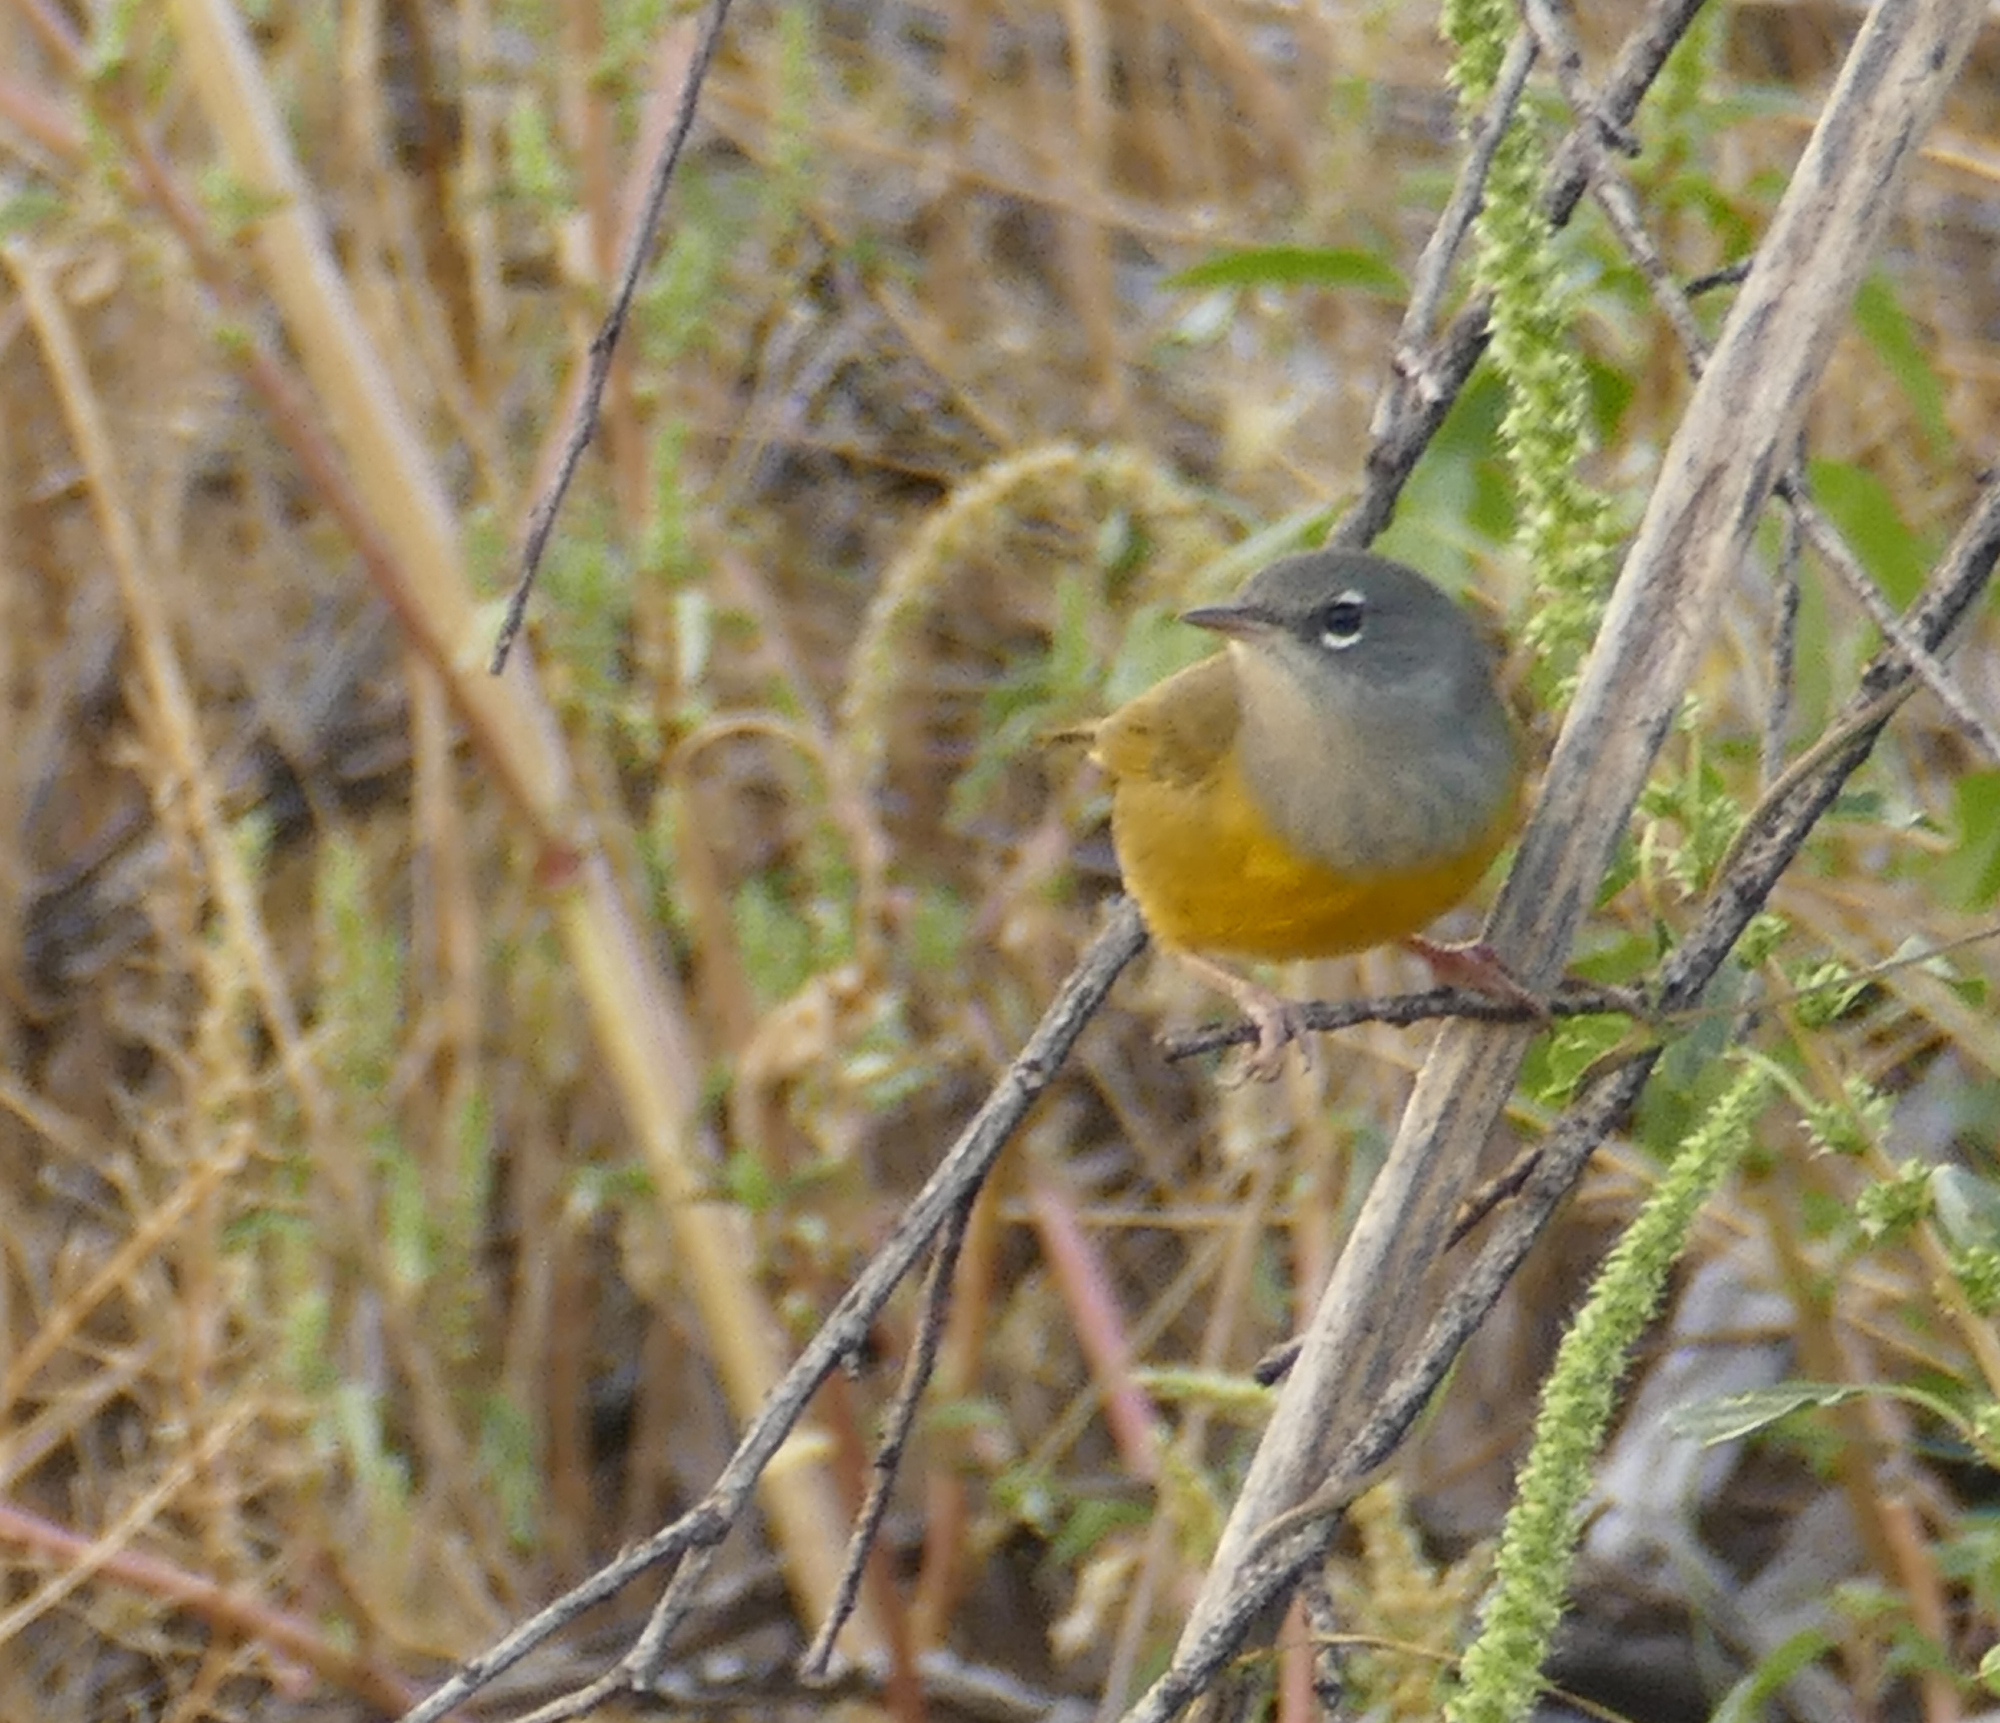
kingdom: Animalia
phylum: Chordata
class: Aves
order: Passeriformes
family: Parulidae
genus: Geothlypis
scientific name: Geothlypis tolmiei
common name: Macgillivray's warbler
